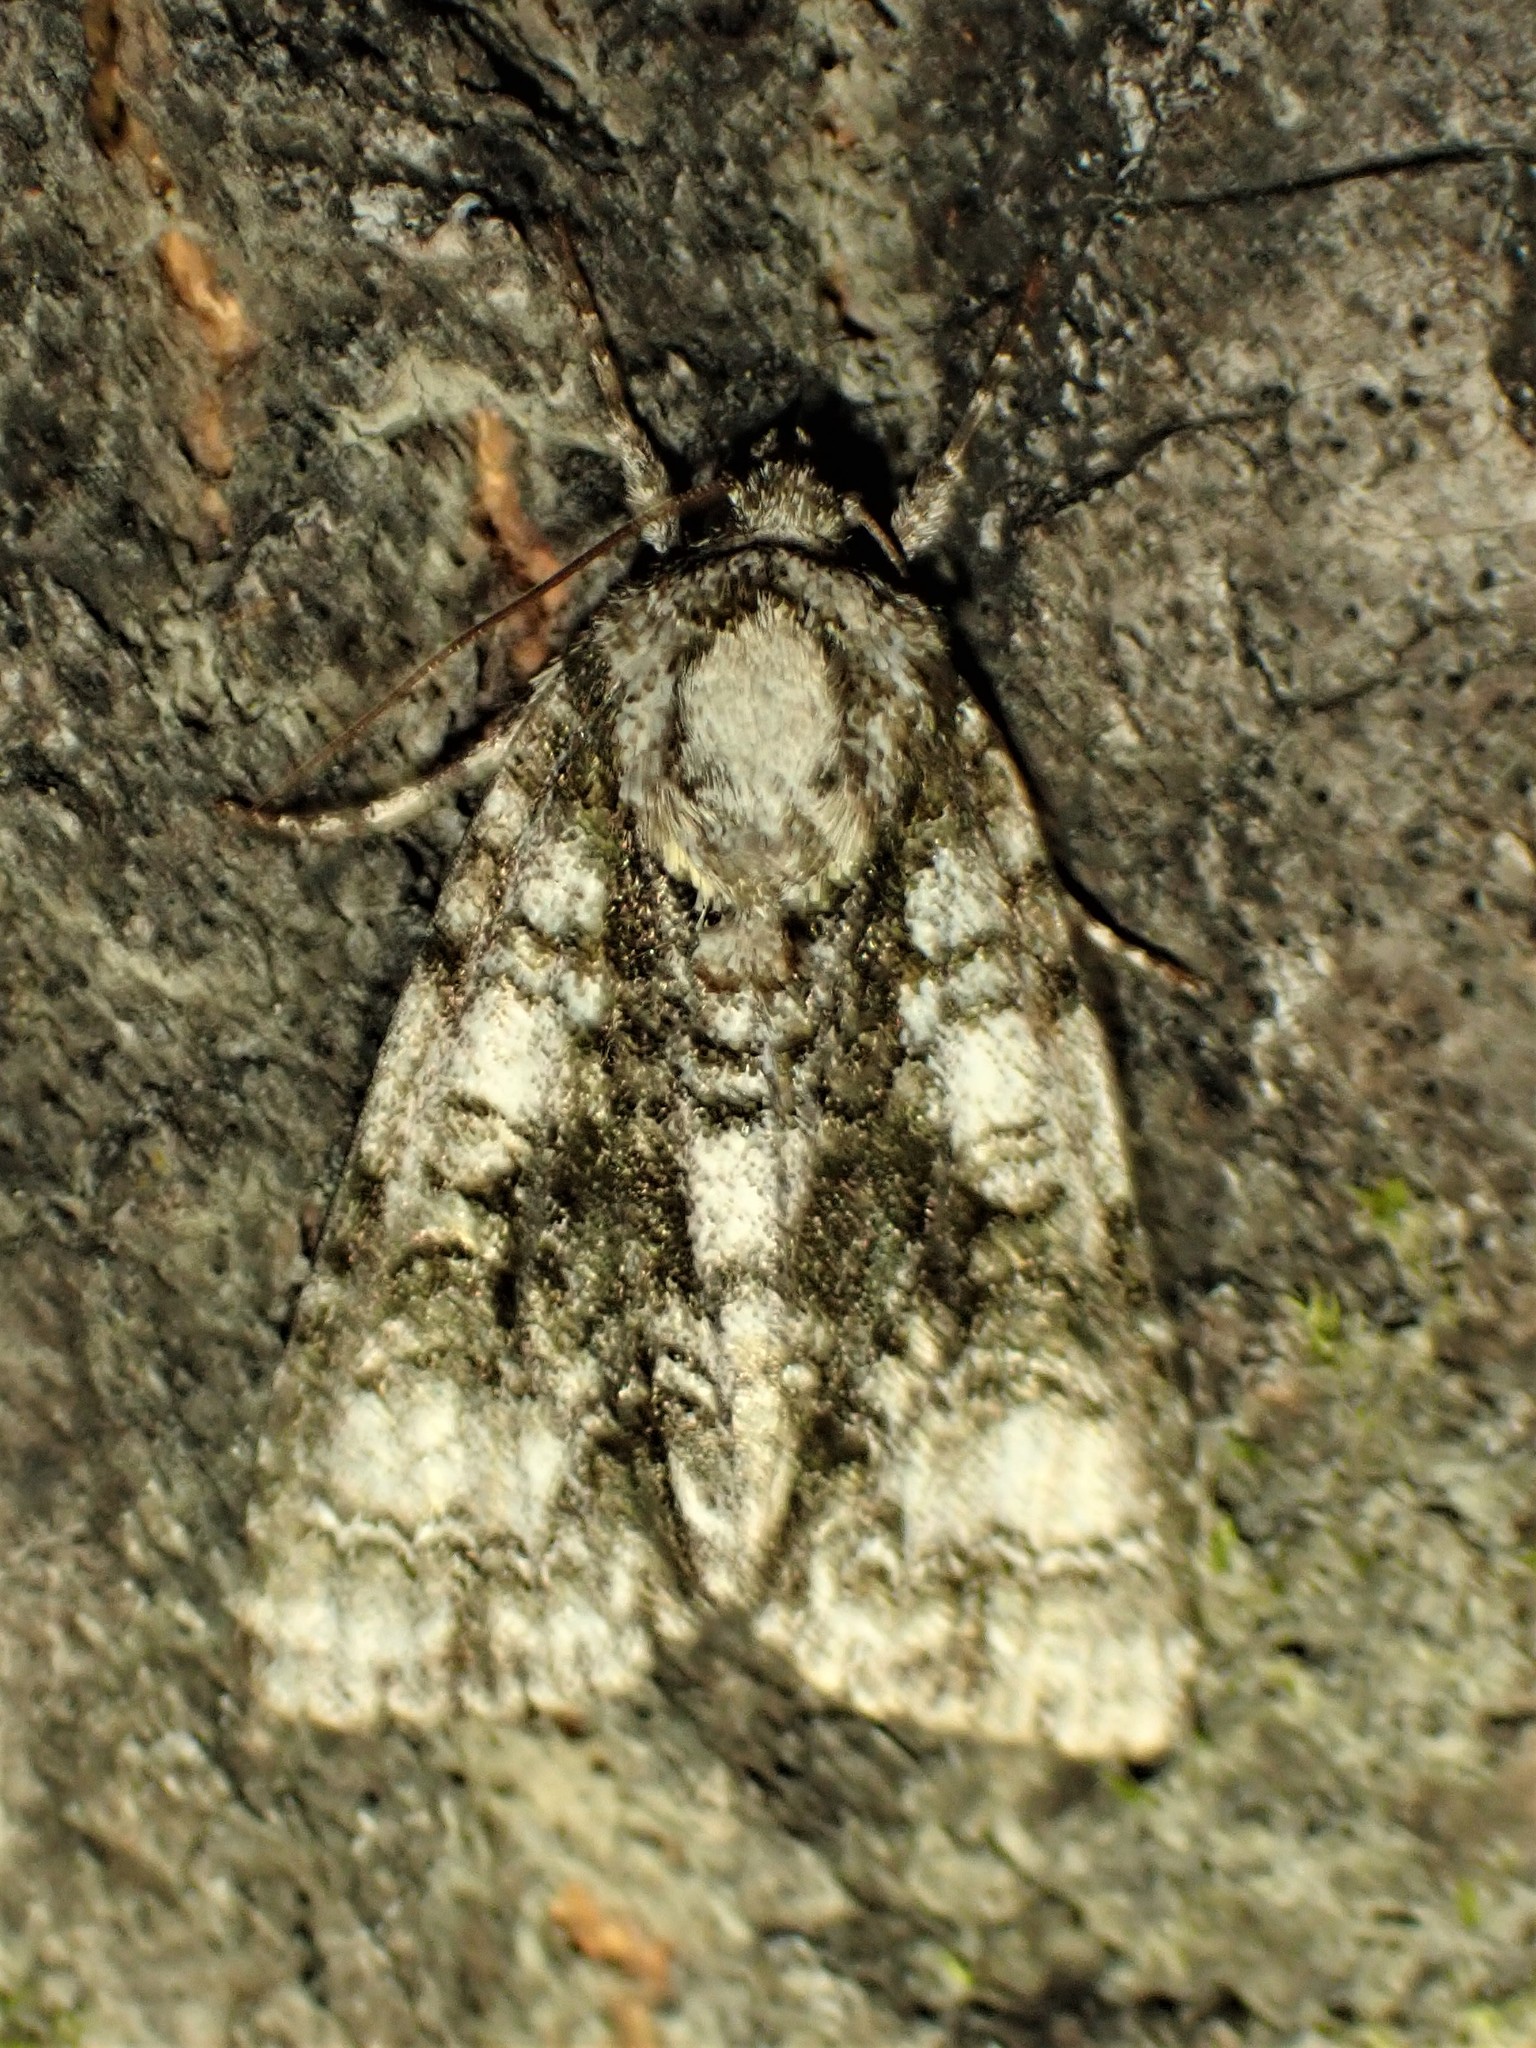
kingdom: Animalia
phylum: Arthropoda
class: Insecta
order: Lepidoptera
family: Noctuidae
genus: Acronicta
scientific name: Acronicta superans
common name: Splendid dagger
